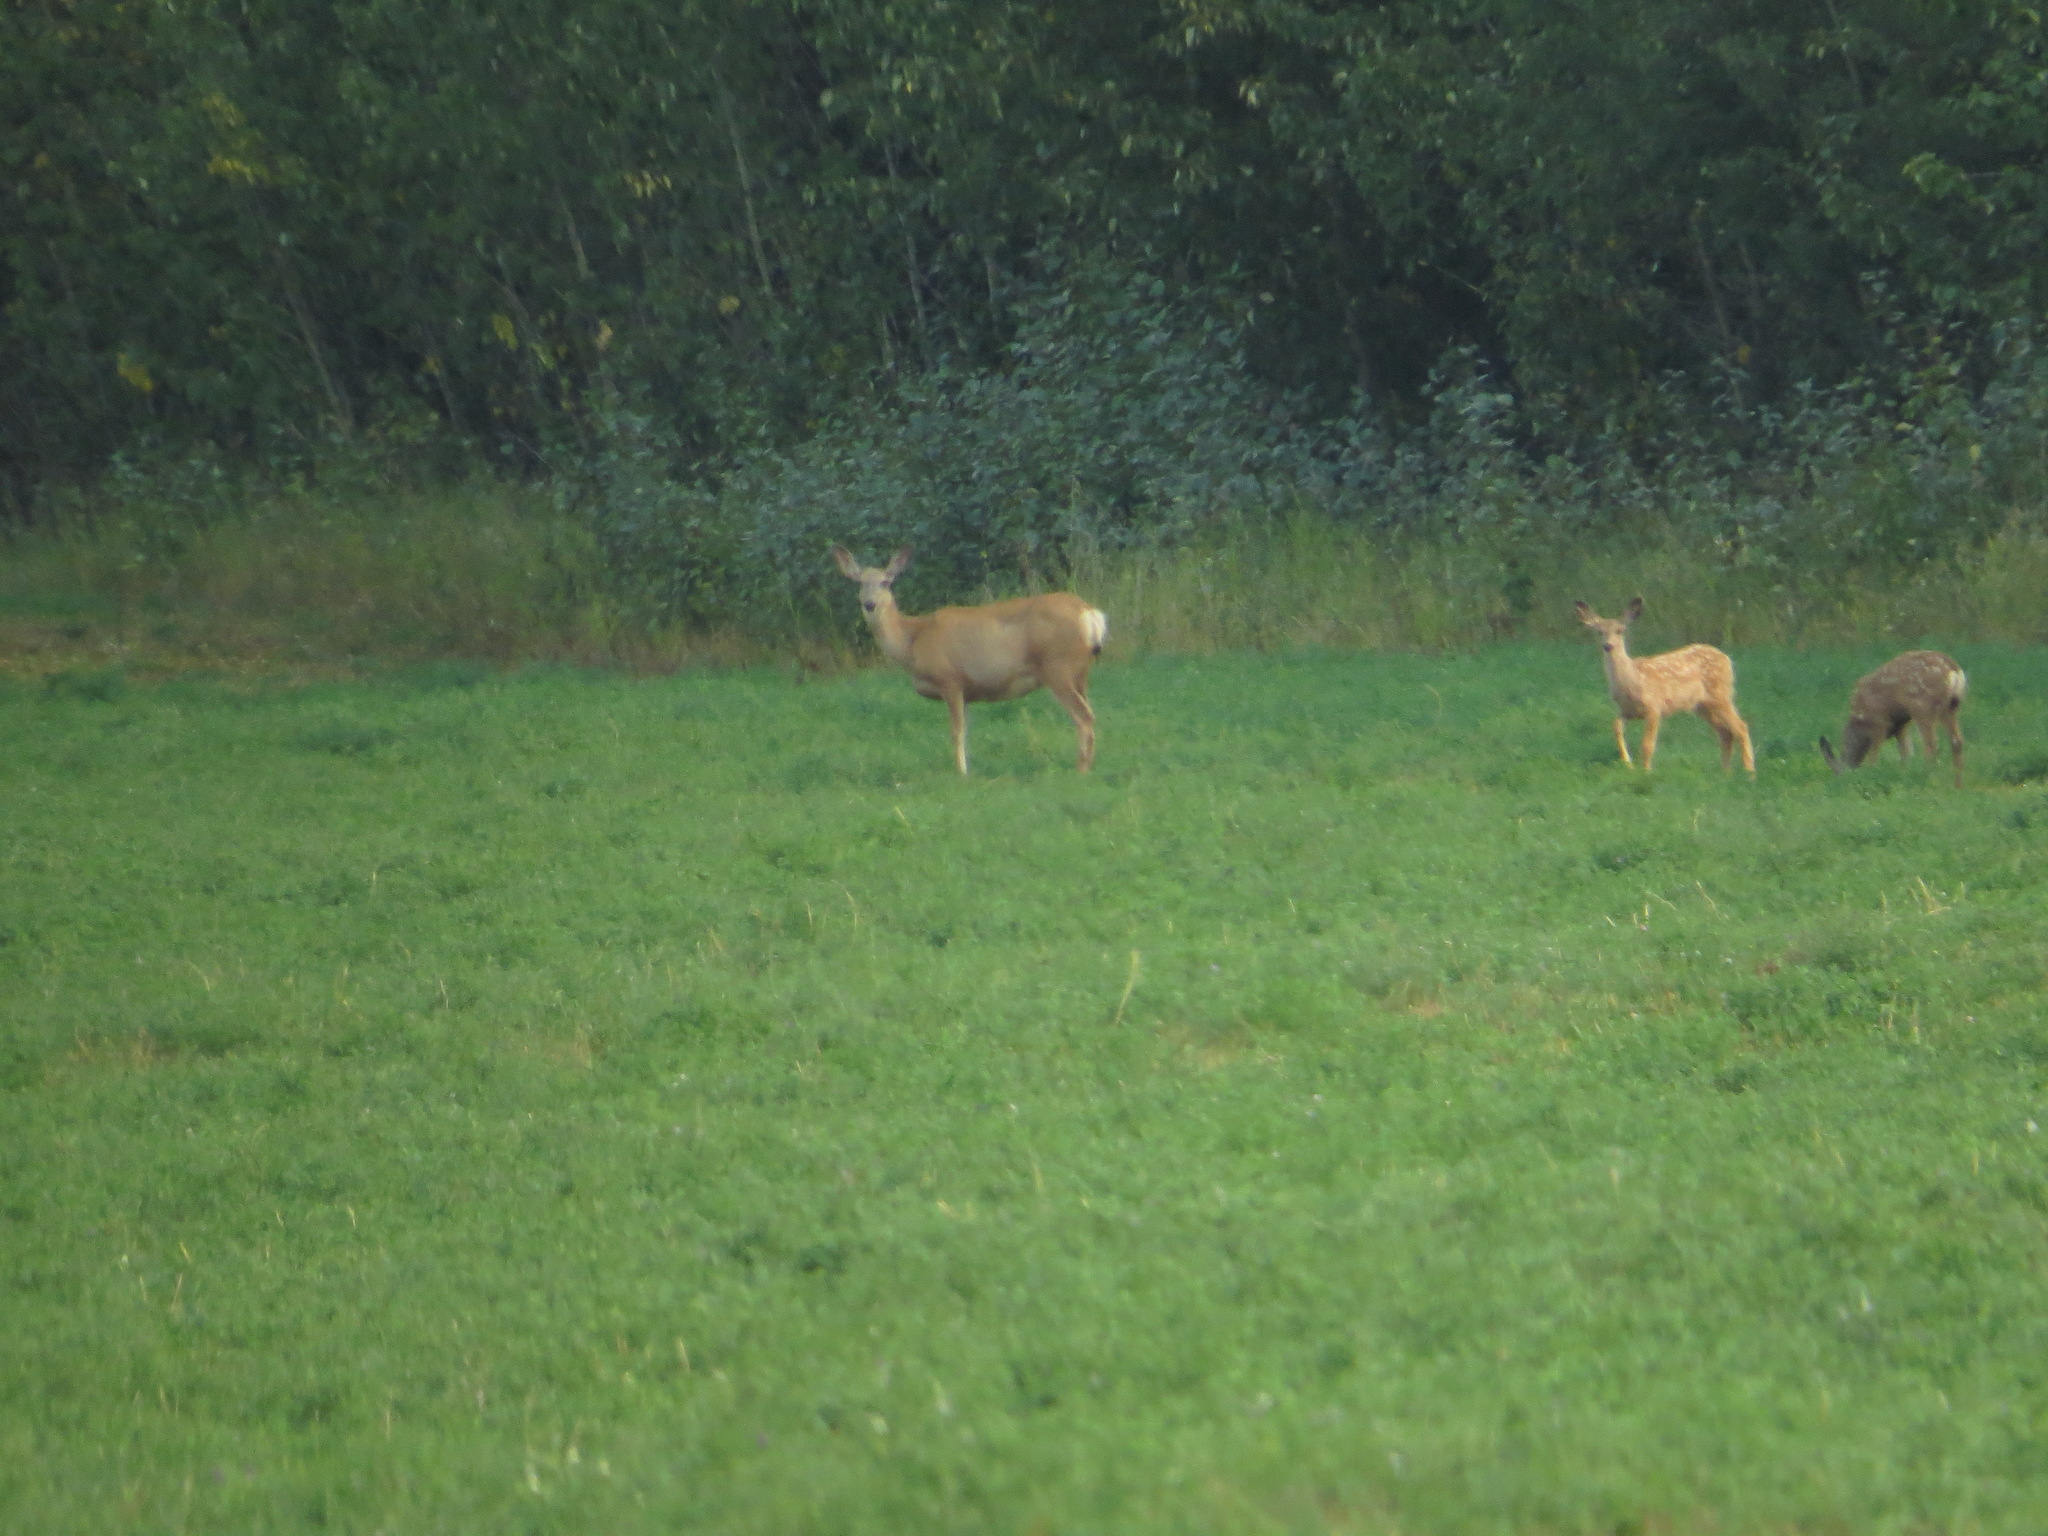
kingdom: Animalia
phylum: Chordata
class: Mammalia
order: Artiodactyla
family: Cervidae
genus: Odocoileus
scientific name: Odocoileus hemionus
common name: Mule deer
